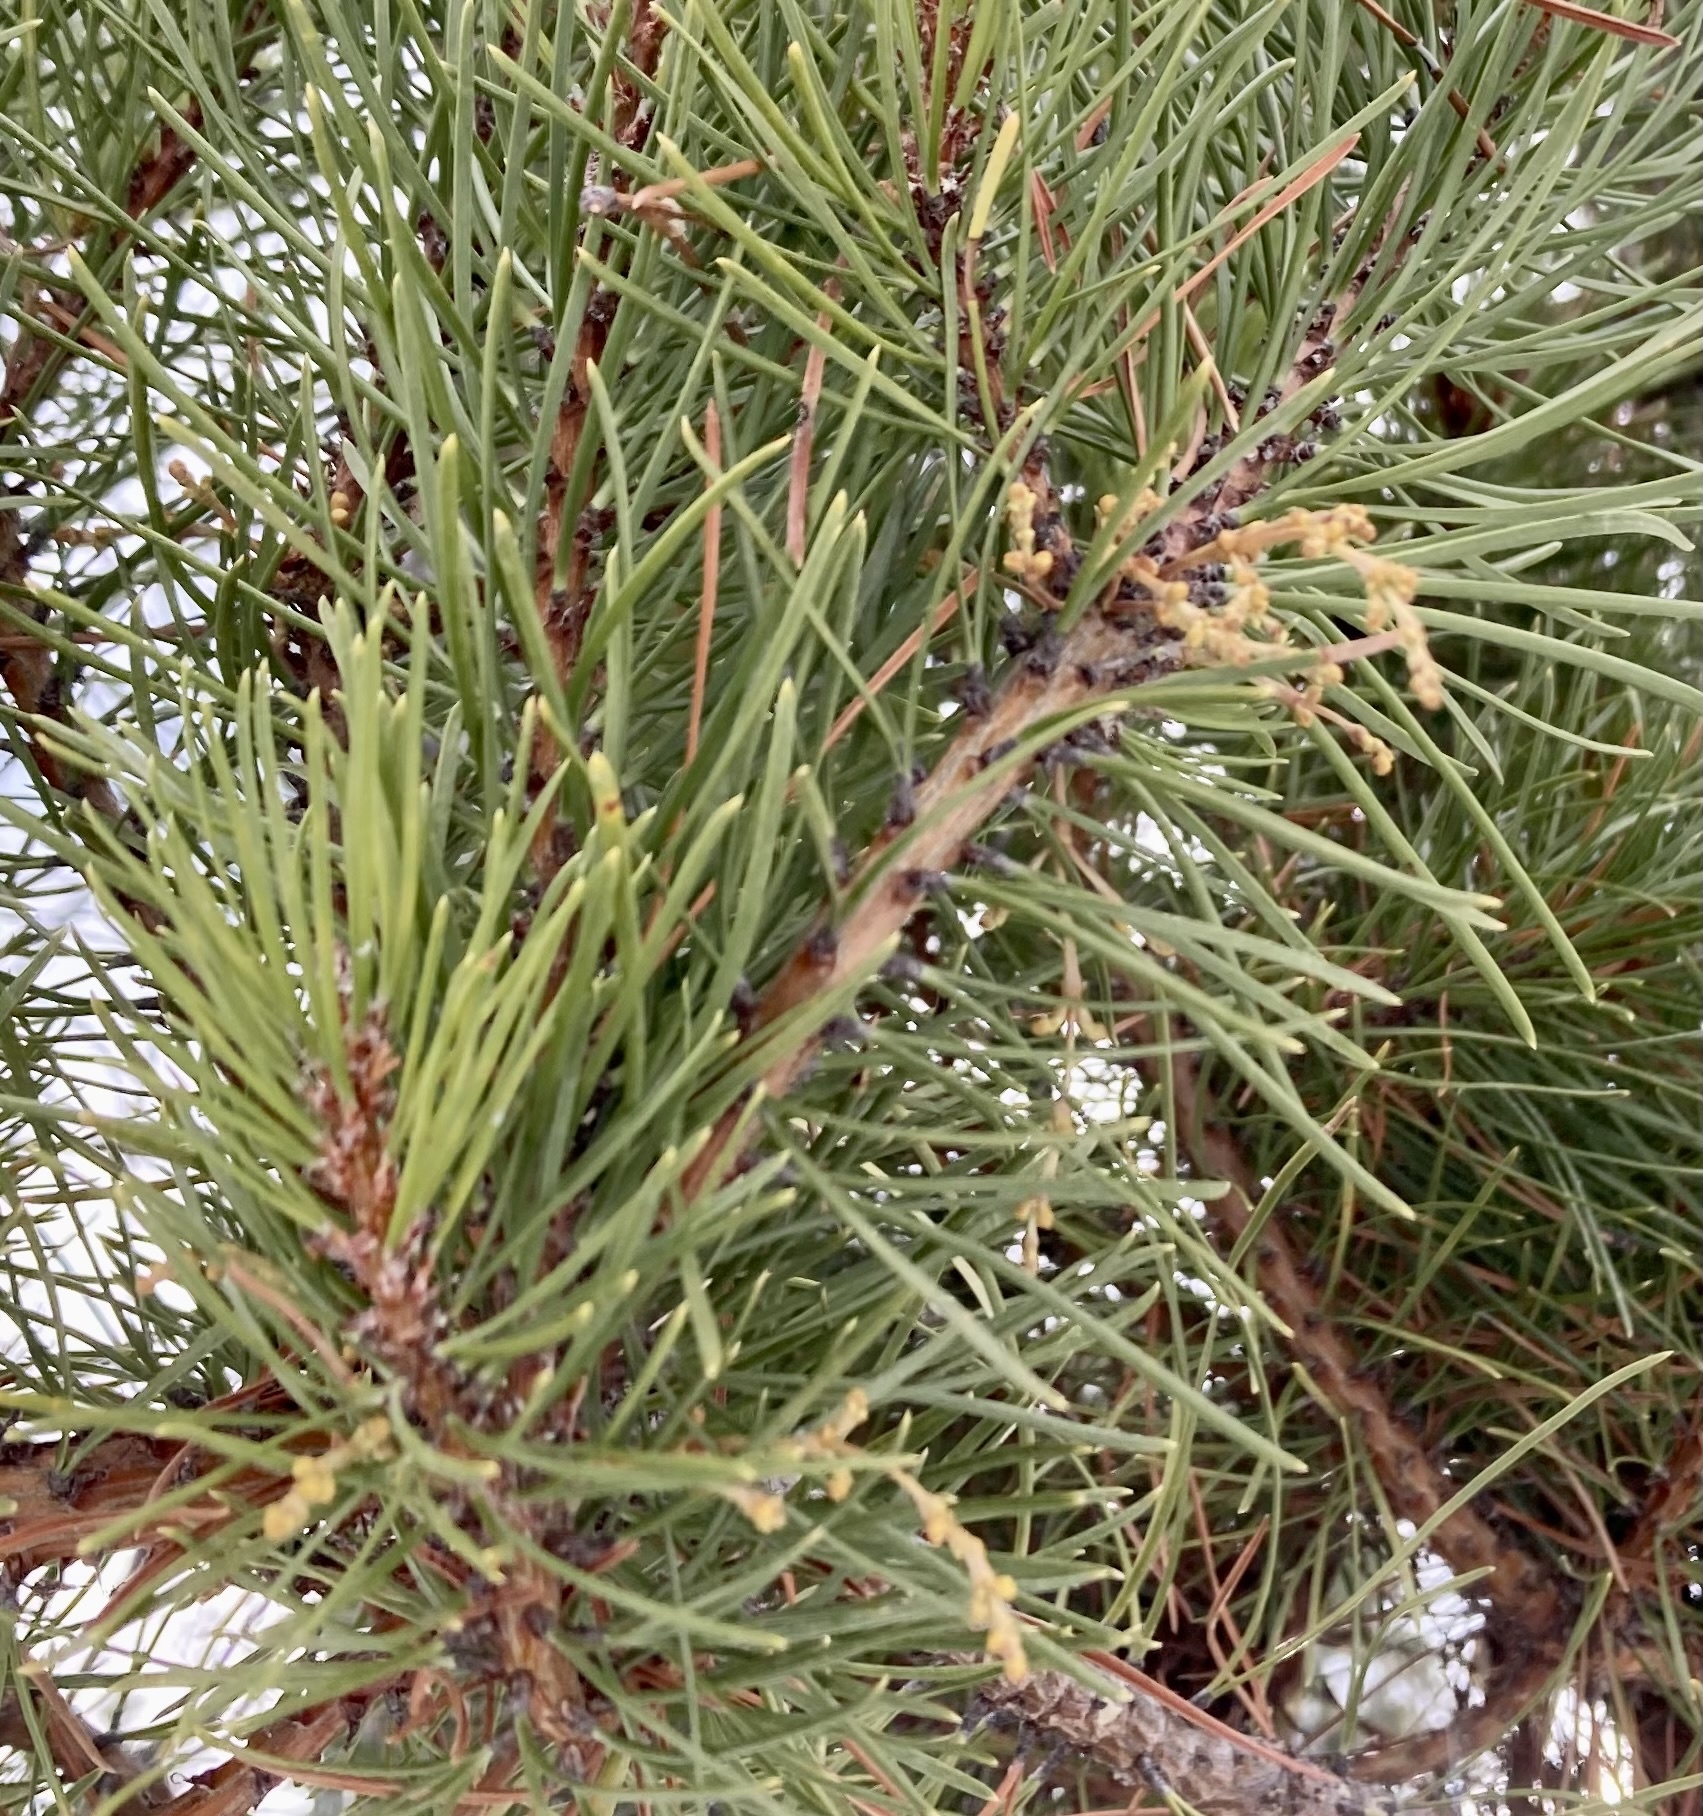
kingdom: Plantae
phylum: Tracheophyta
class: Magnoliopsida
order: Santalales
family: Viscaceae
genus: Arceuthobium
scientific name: Arceuthobium americanum
